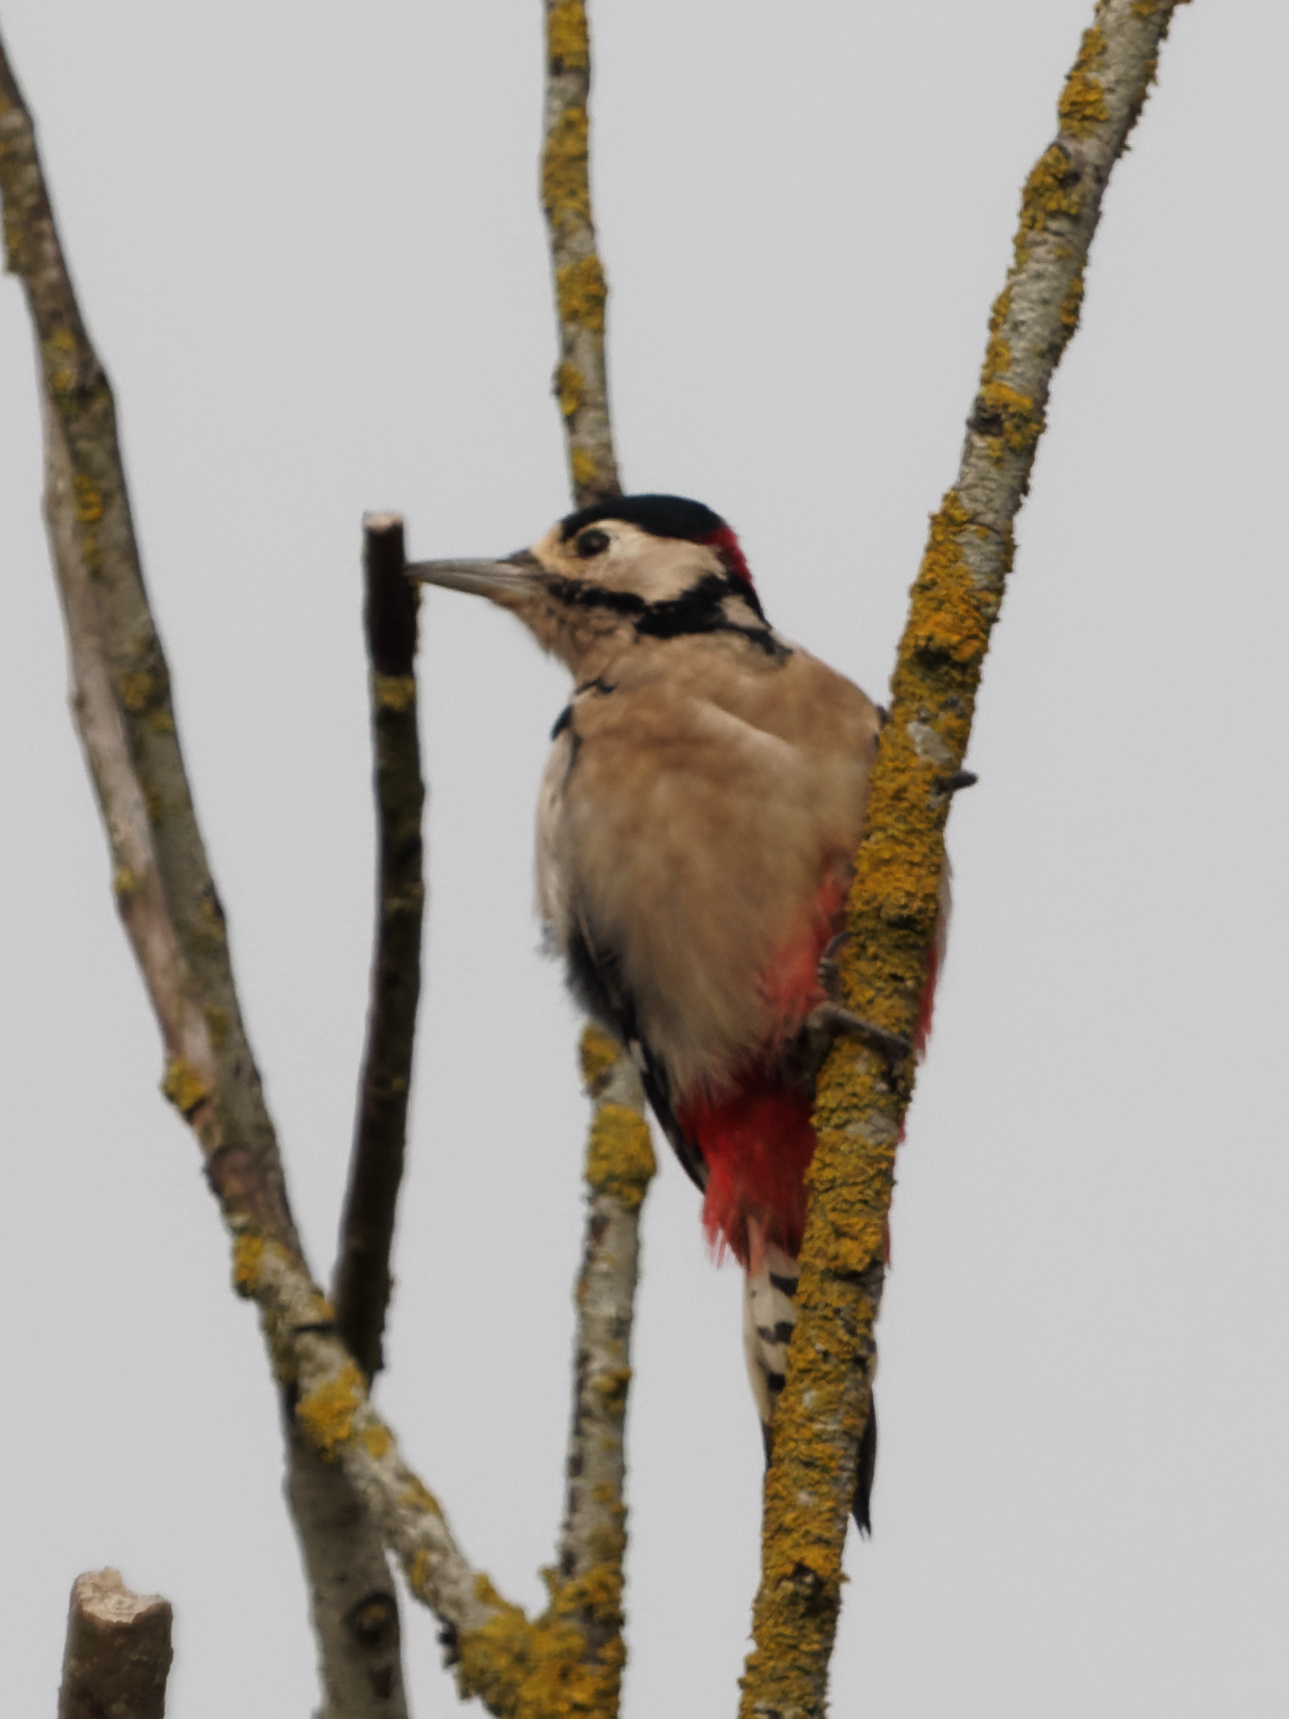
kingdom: Animalia
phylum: Chordata
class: Aves
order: Piciformes
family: Picidae
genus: Dendrocopos
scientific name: Dendrocopos major
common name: Great spotted woodpecker
